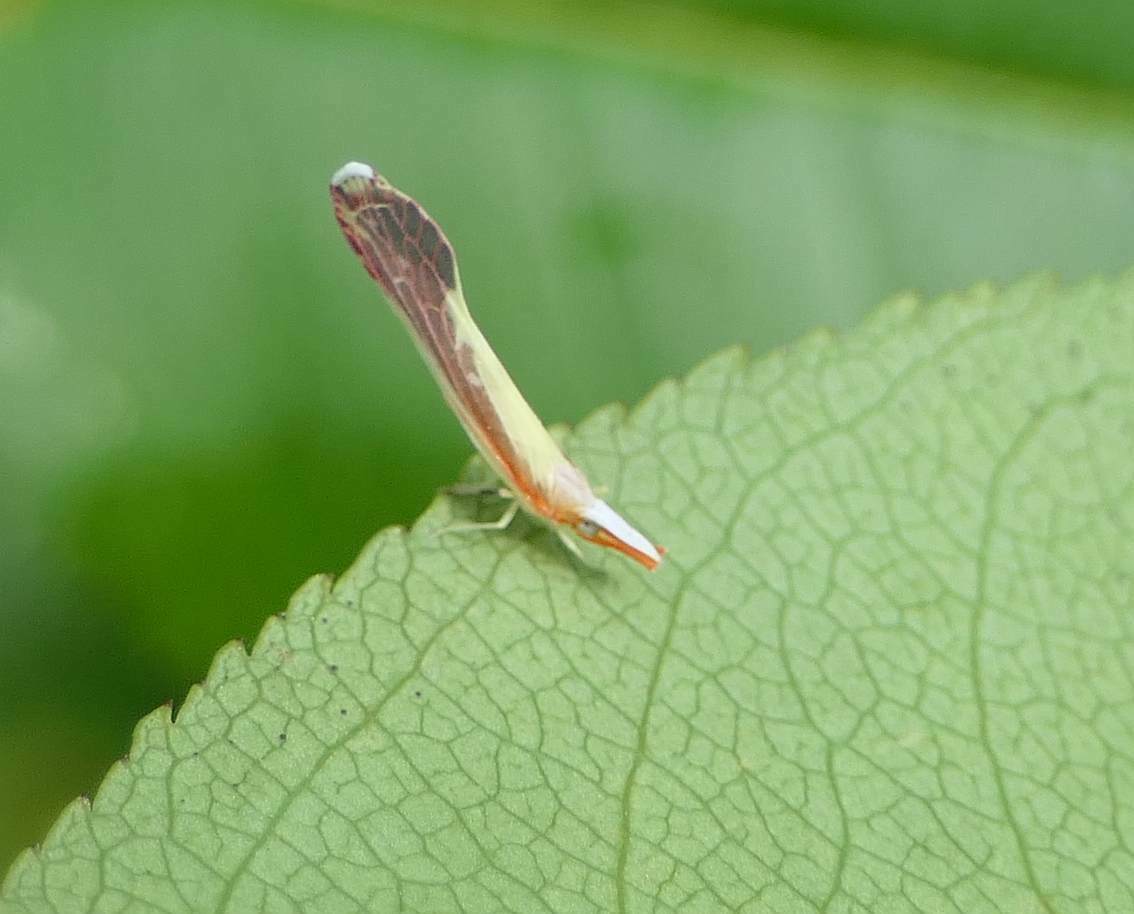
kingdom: Animalia
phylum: Arthropoda
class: Insecta
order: Hemiptera
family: Derbidae
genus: Shellenius
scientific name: Shellenius ballii
